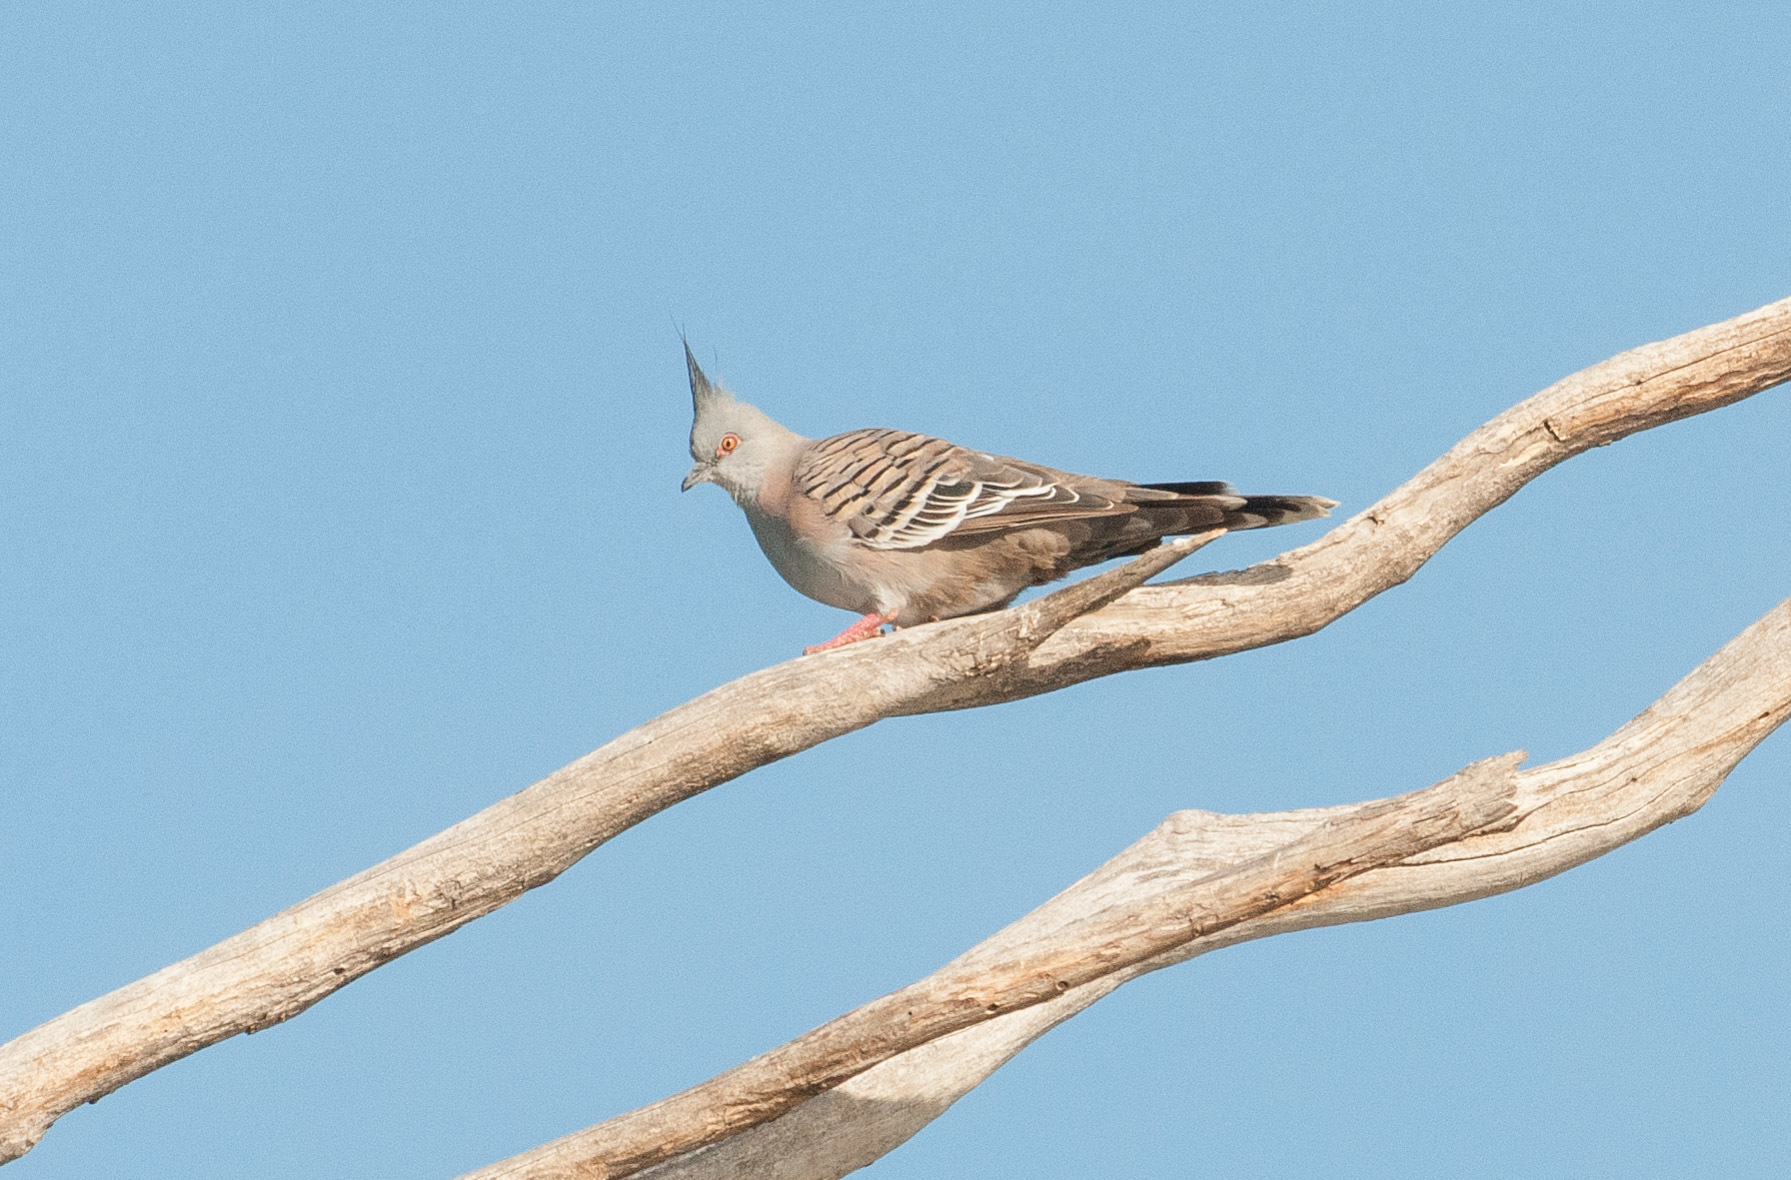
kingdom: Animalia
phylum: Chordata
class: Aves
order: Columbiformes
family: Columbidae
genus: Ocyphaps
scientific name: Ocyphaps lophotes
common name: Crested pigeon
